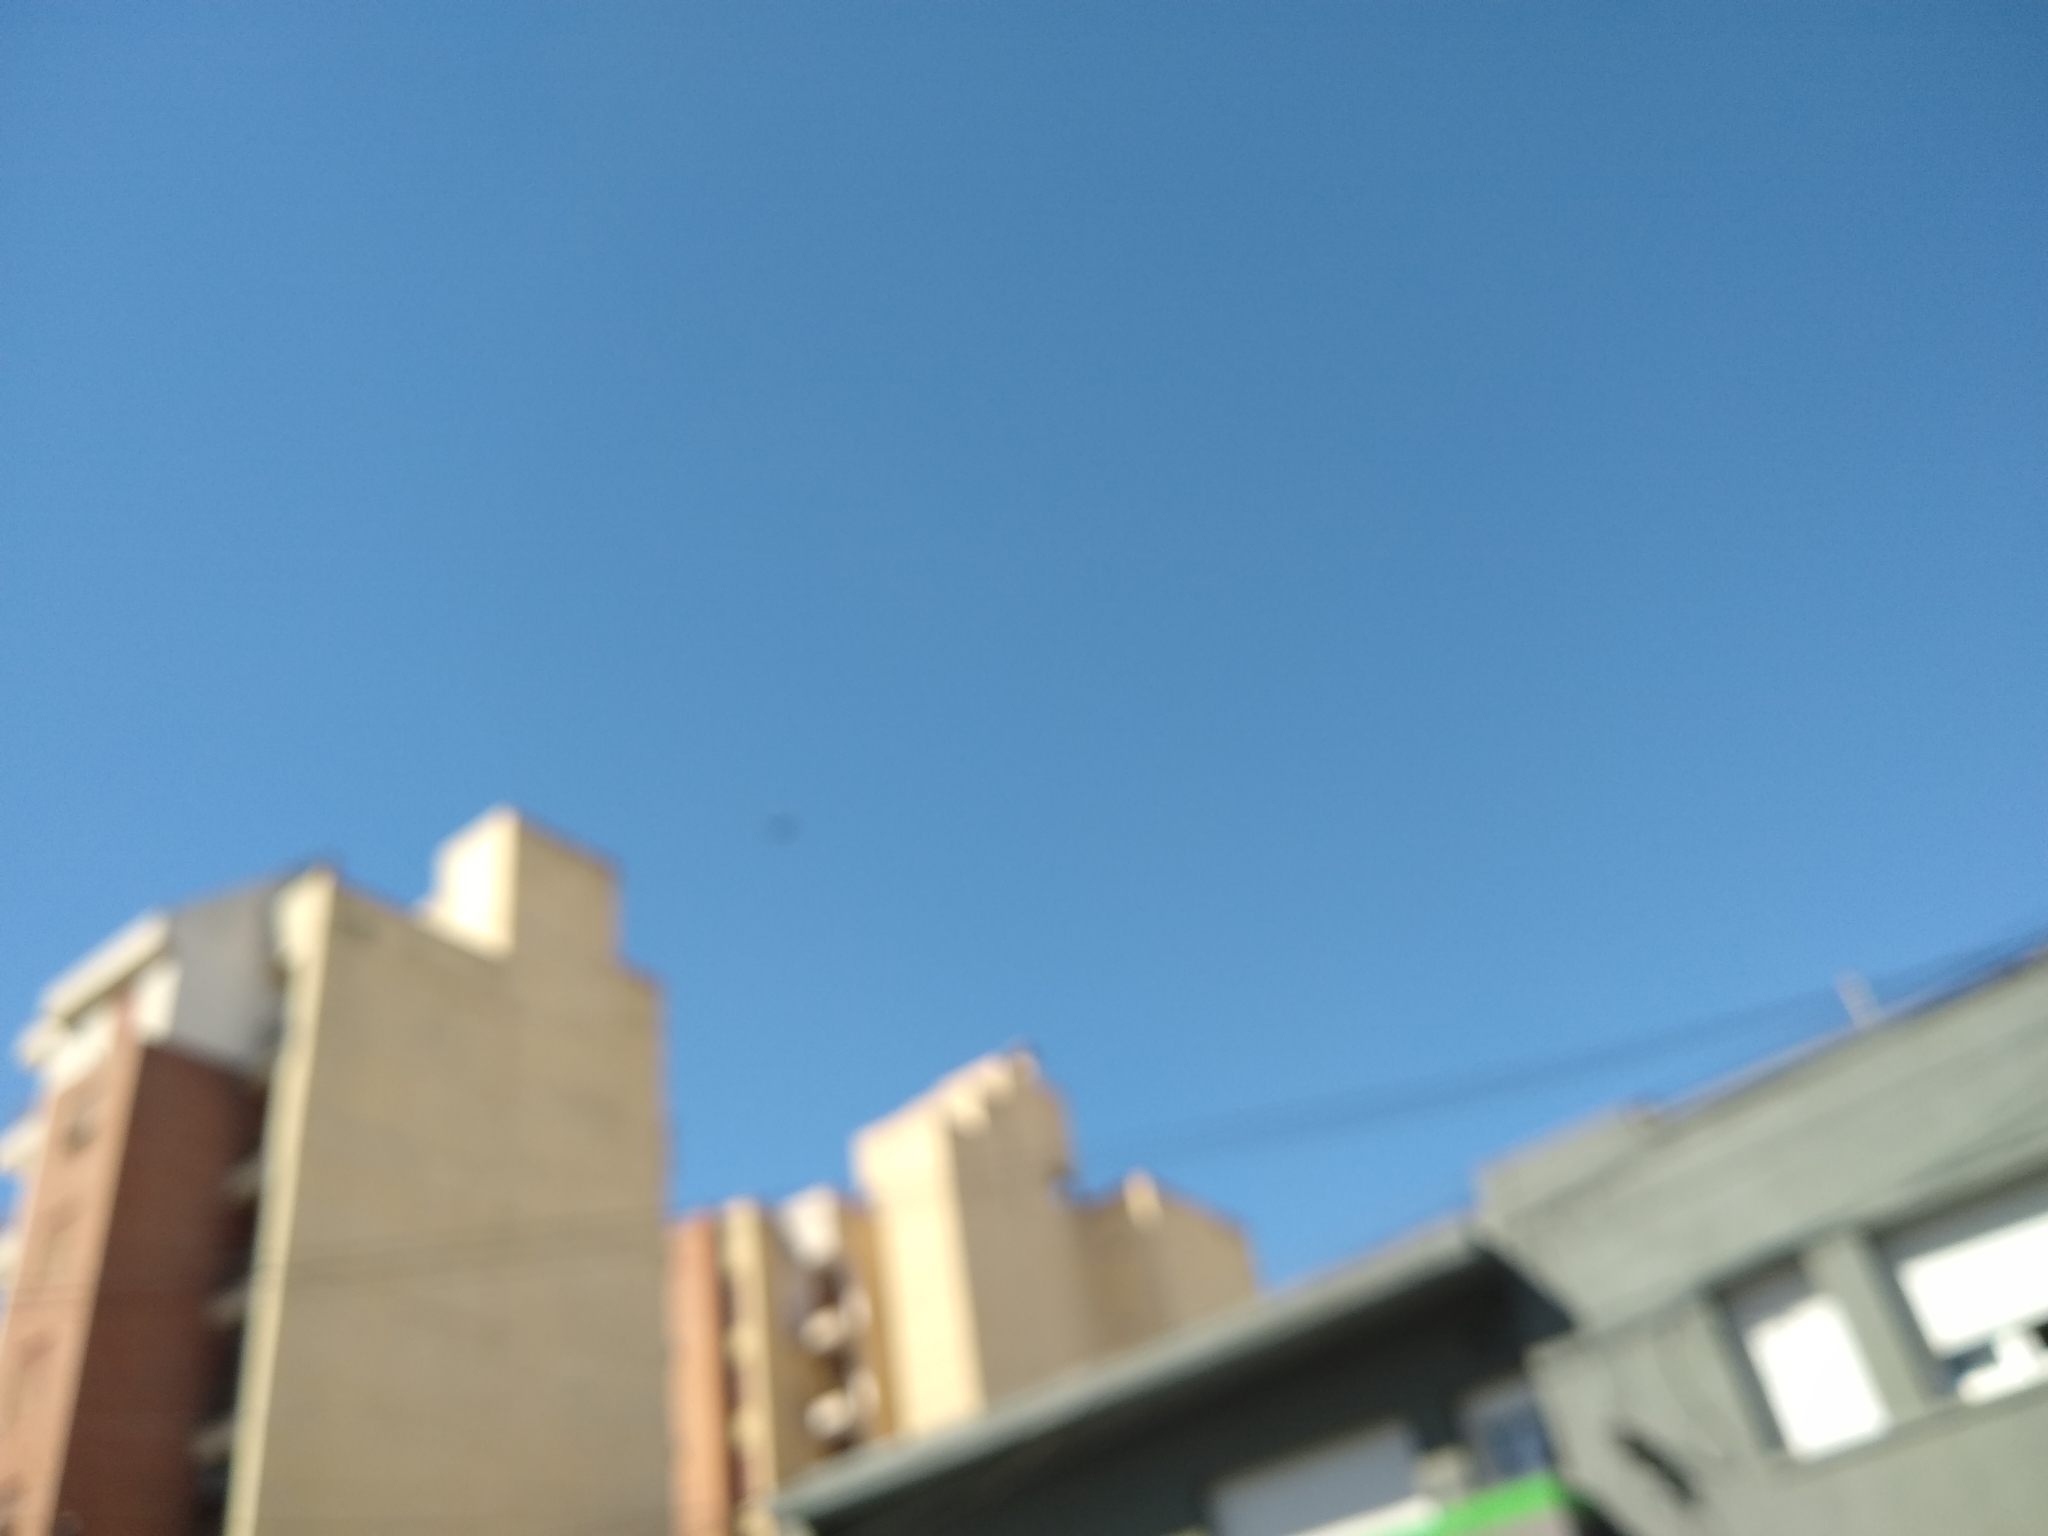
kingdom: Animalia
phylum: Chordata
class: Aves
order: Accipitriformes
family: Cathartidae
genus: Coragyps
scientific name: Coragyps atratus
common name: Black vulture
